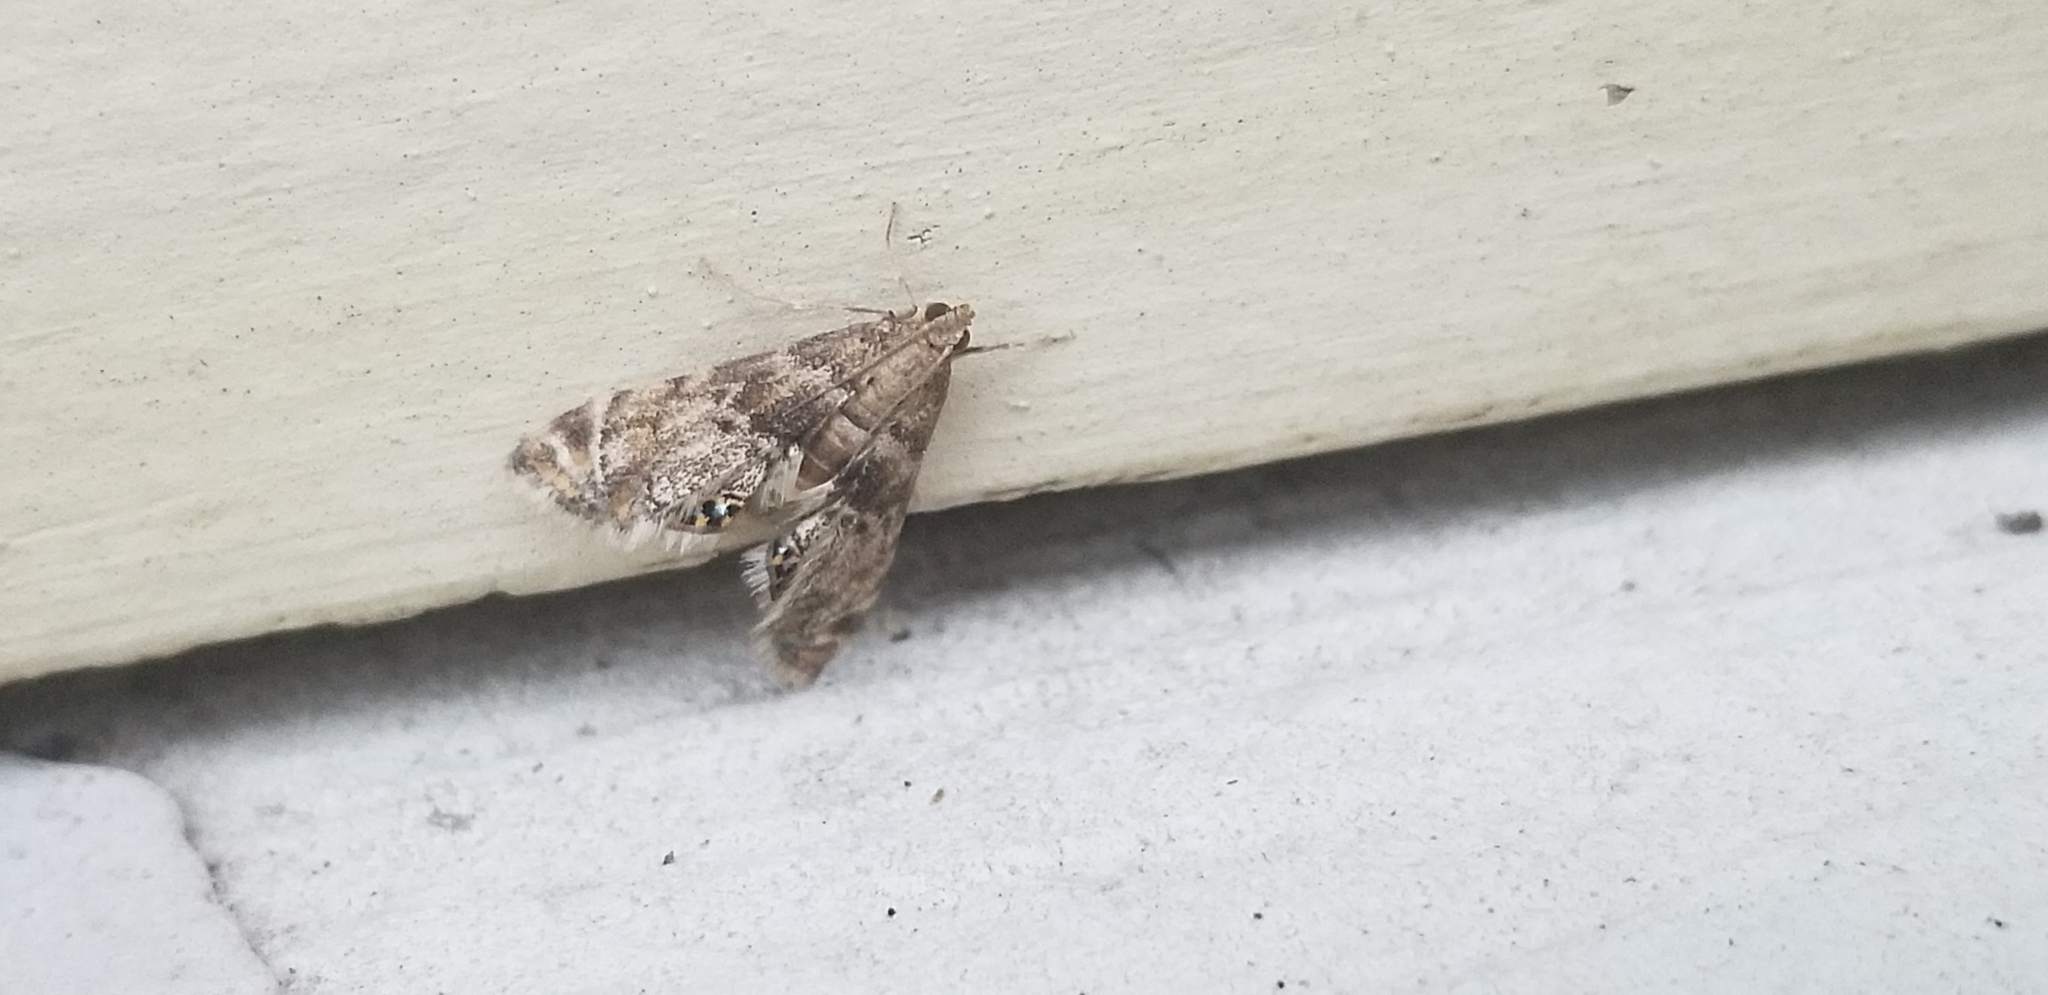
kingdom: Animalia
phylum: Arthropoda
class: Insecta
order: Lepidoptera
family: Crambidae
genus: Petrophila
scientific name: Petrophila fulicalis
